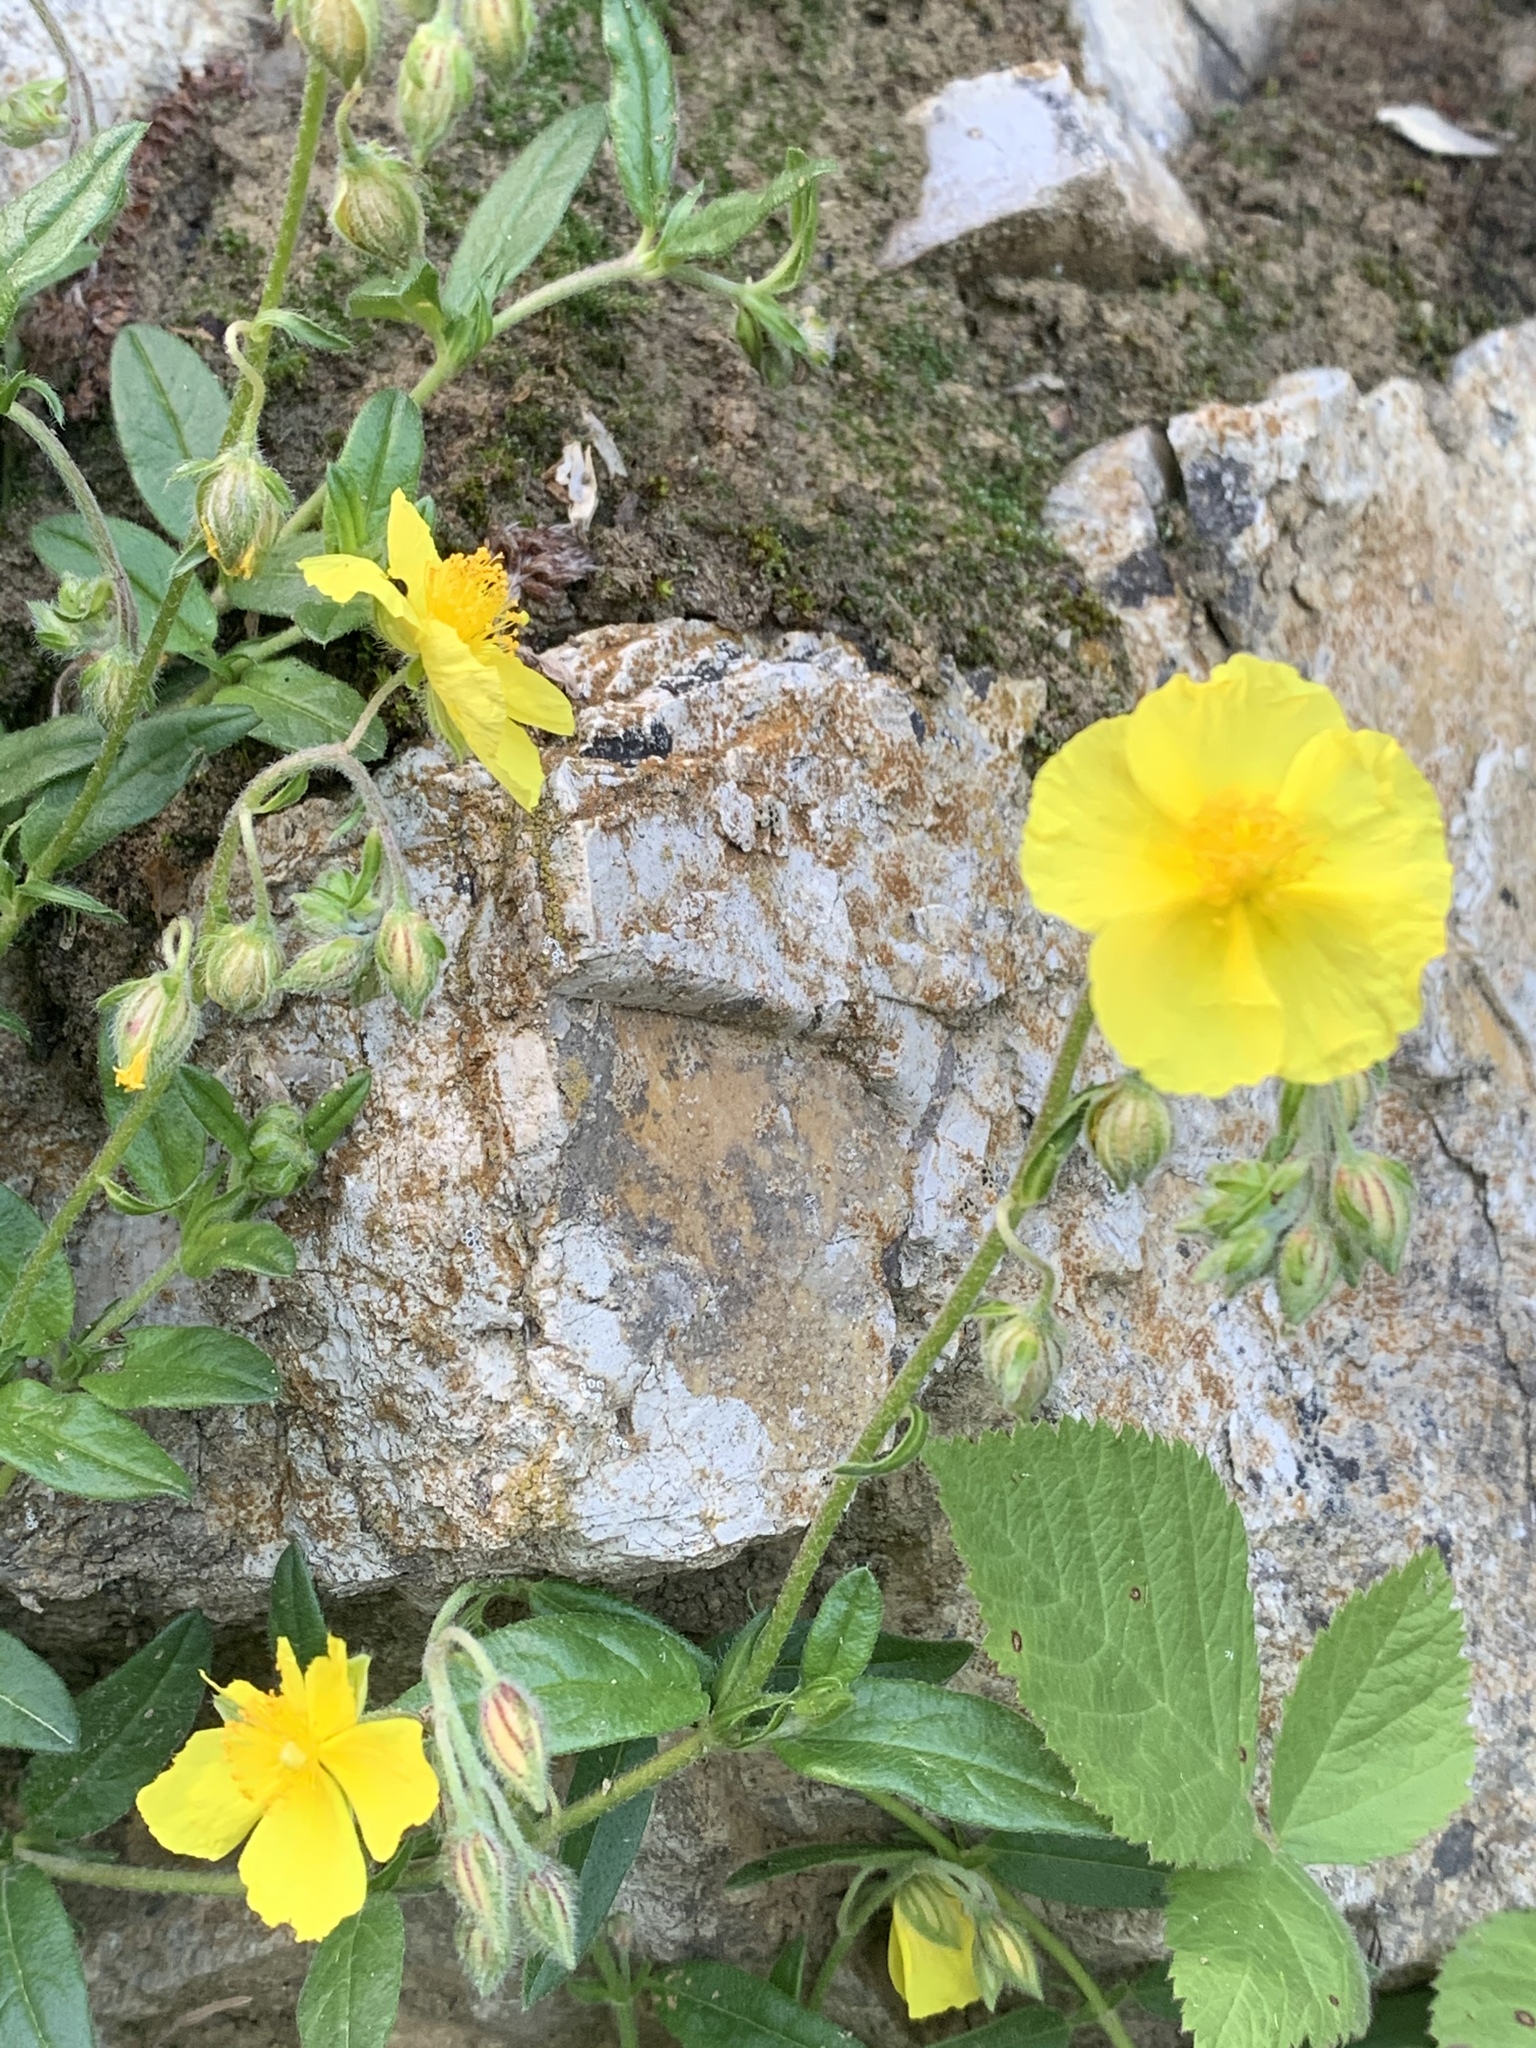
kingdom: Plantae
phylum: Tracheophyta
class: Magnoliopsida
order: Malvales
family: Cistaceae
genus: Helianthemum
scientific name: Helianthemum nummularium
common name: Common rock-rose
